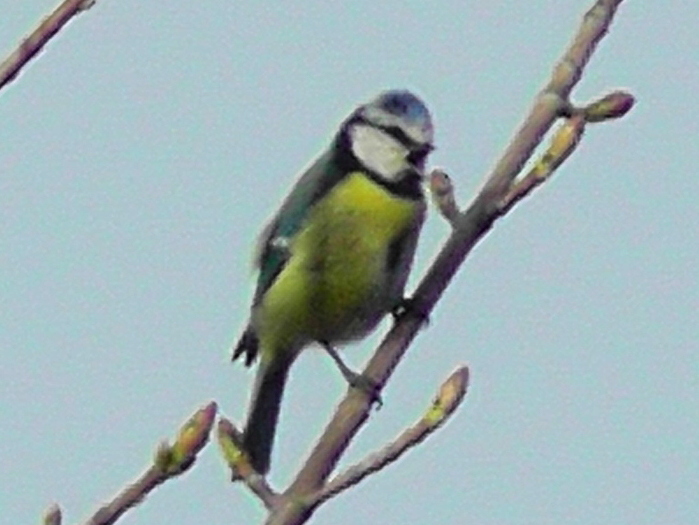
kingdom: Animalia
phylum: Chordata
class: Aves
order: Passeriformes
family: Paridae
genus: Cyanistes
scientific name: Cyanistes caeruleus
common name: Eurasian blue tit
